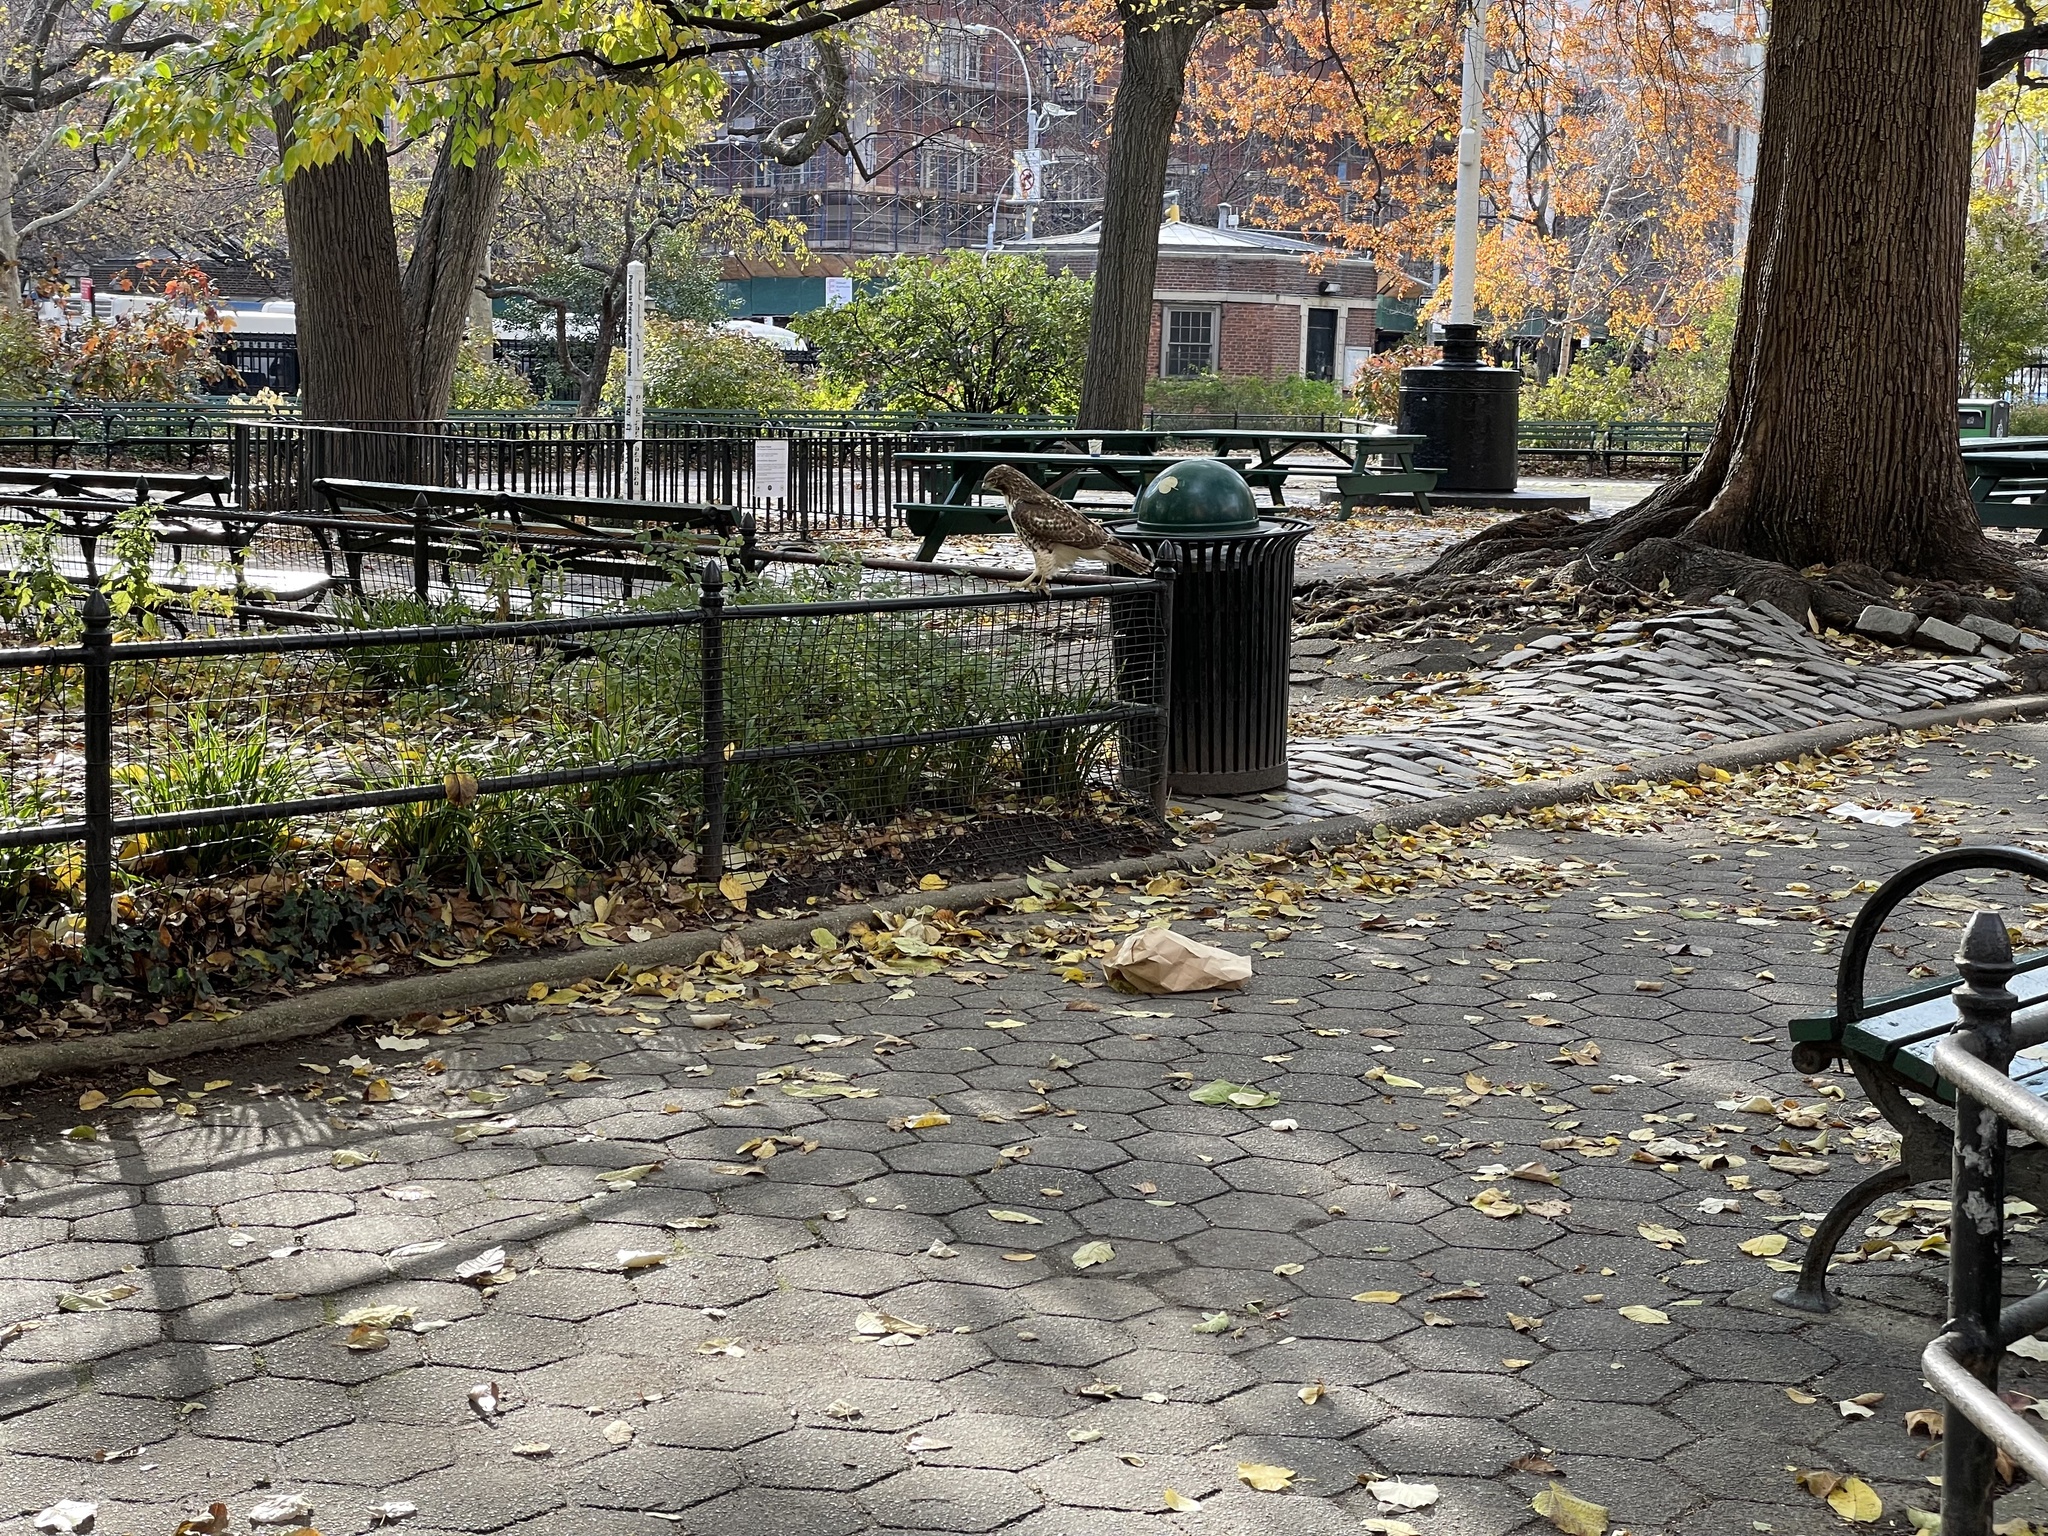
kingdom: Animalia
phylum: Chordata
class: Aves
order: Accipitriformes
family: Accipitridae
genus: Buteo
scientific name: Buteo jamaicensis
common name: Red-tailed hawk
